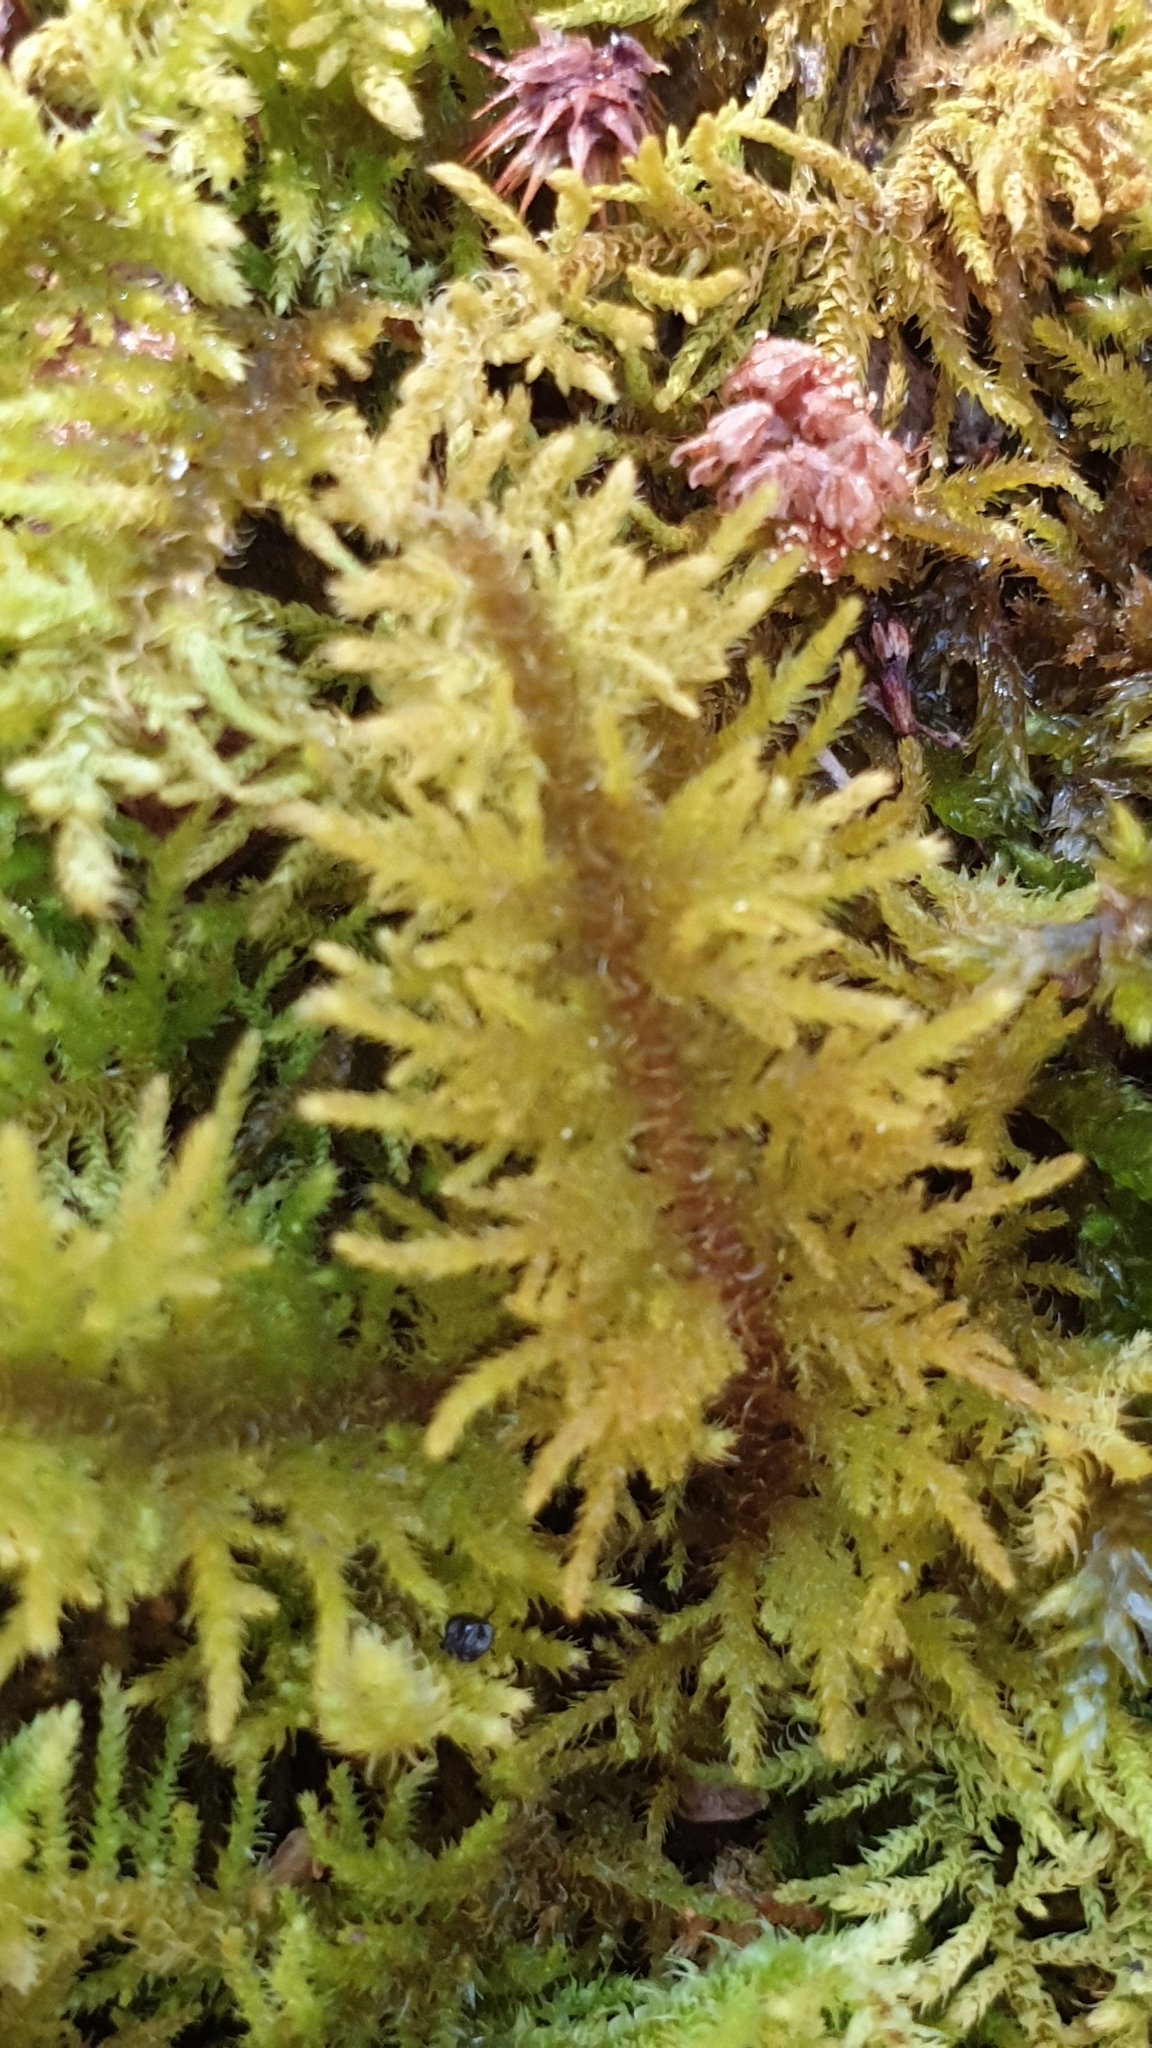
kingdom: Plantae
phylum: Bryophyta
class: Bryopsida
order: Hypnales
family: Thuidiaceae
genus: Thuidiopsis
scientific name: Thuidiopsis sparsa
